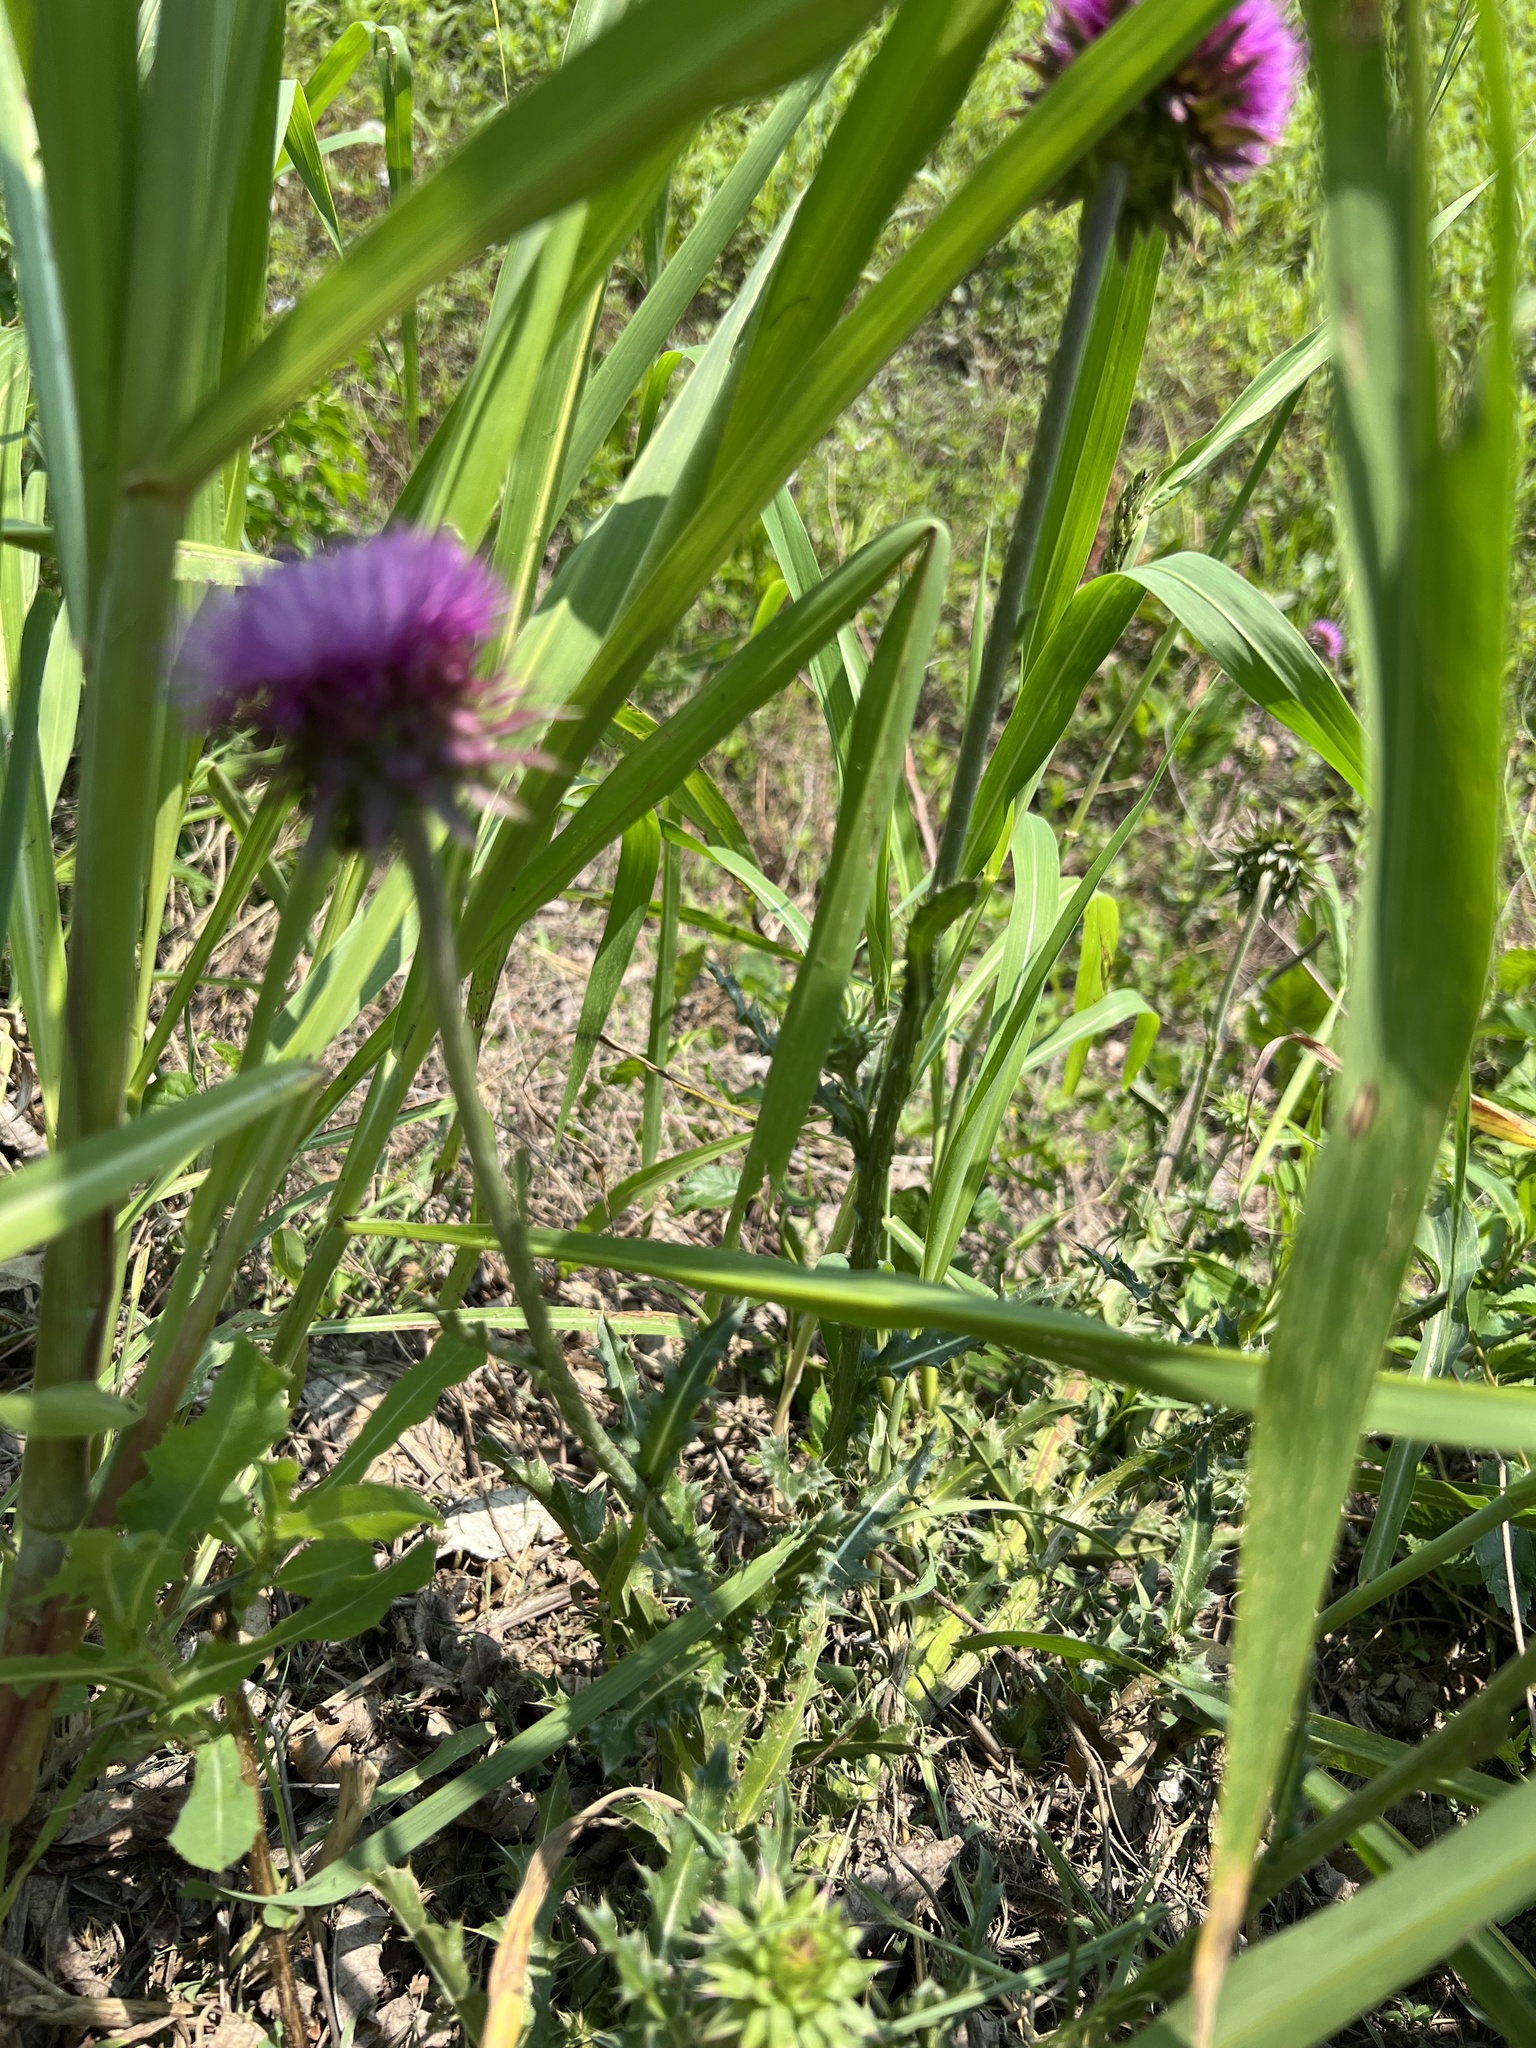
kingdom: Plantae
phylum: Tracheophyta
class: Magnoliopsida
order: Asterales
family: Asteraceae
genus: Carduus
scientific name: Carduus nutans
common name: Musk thistle
